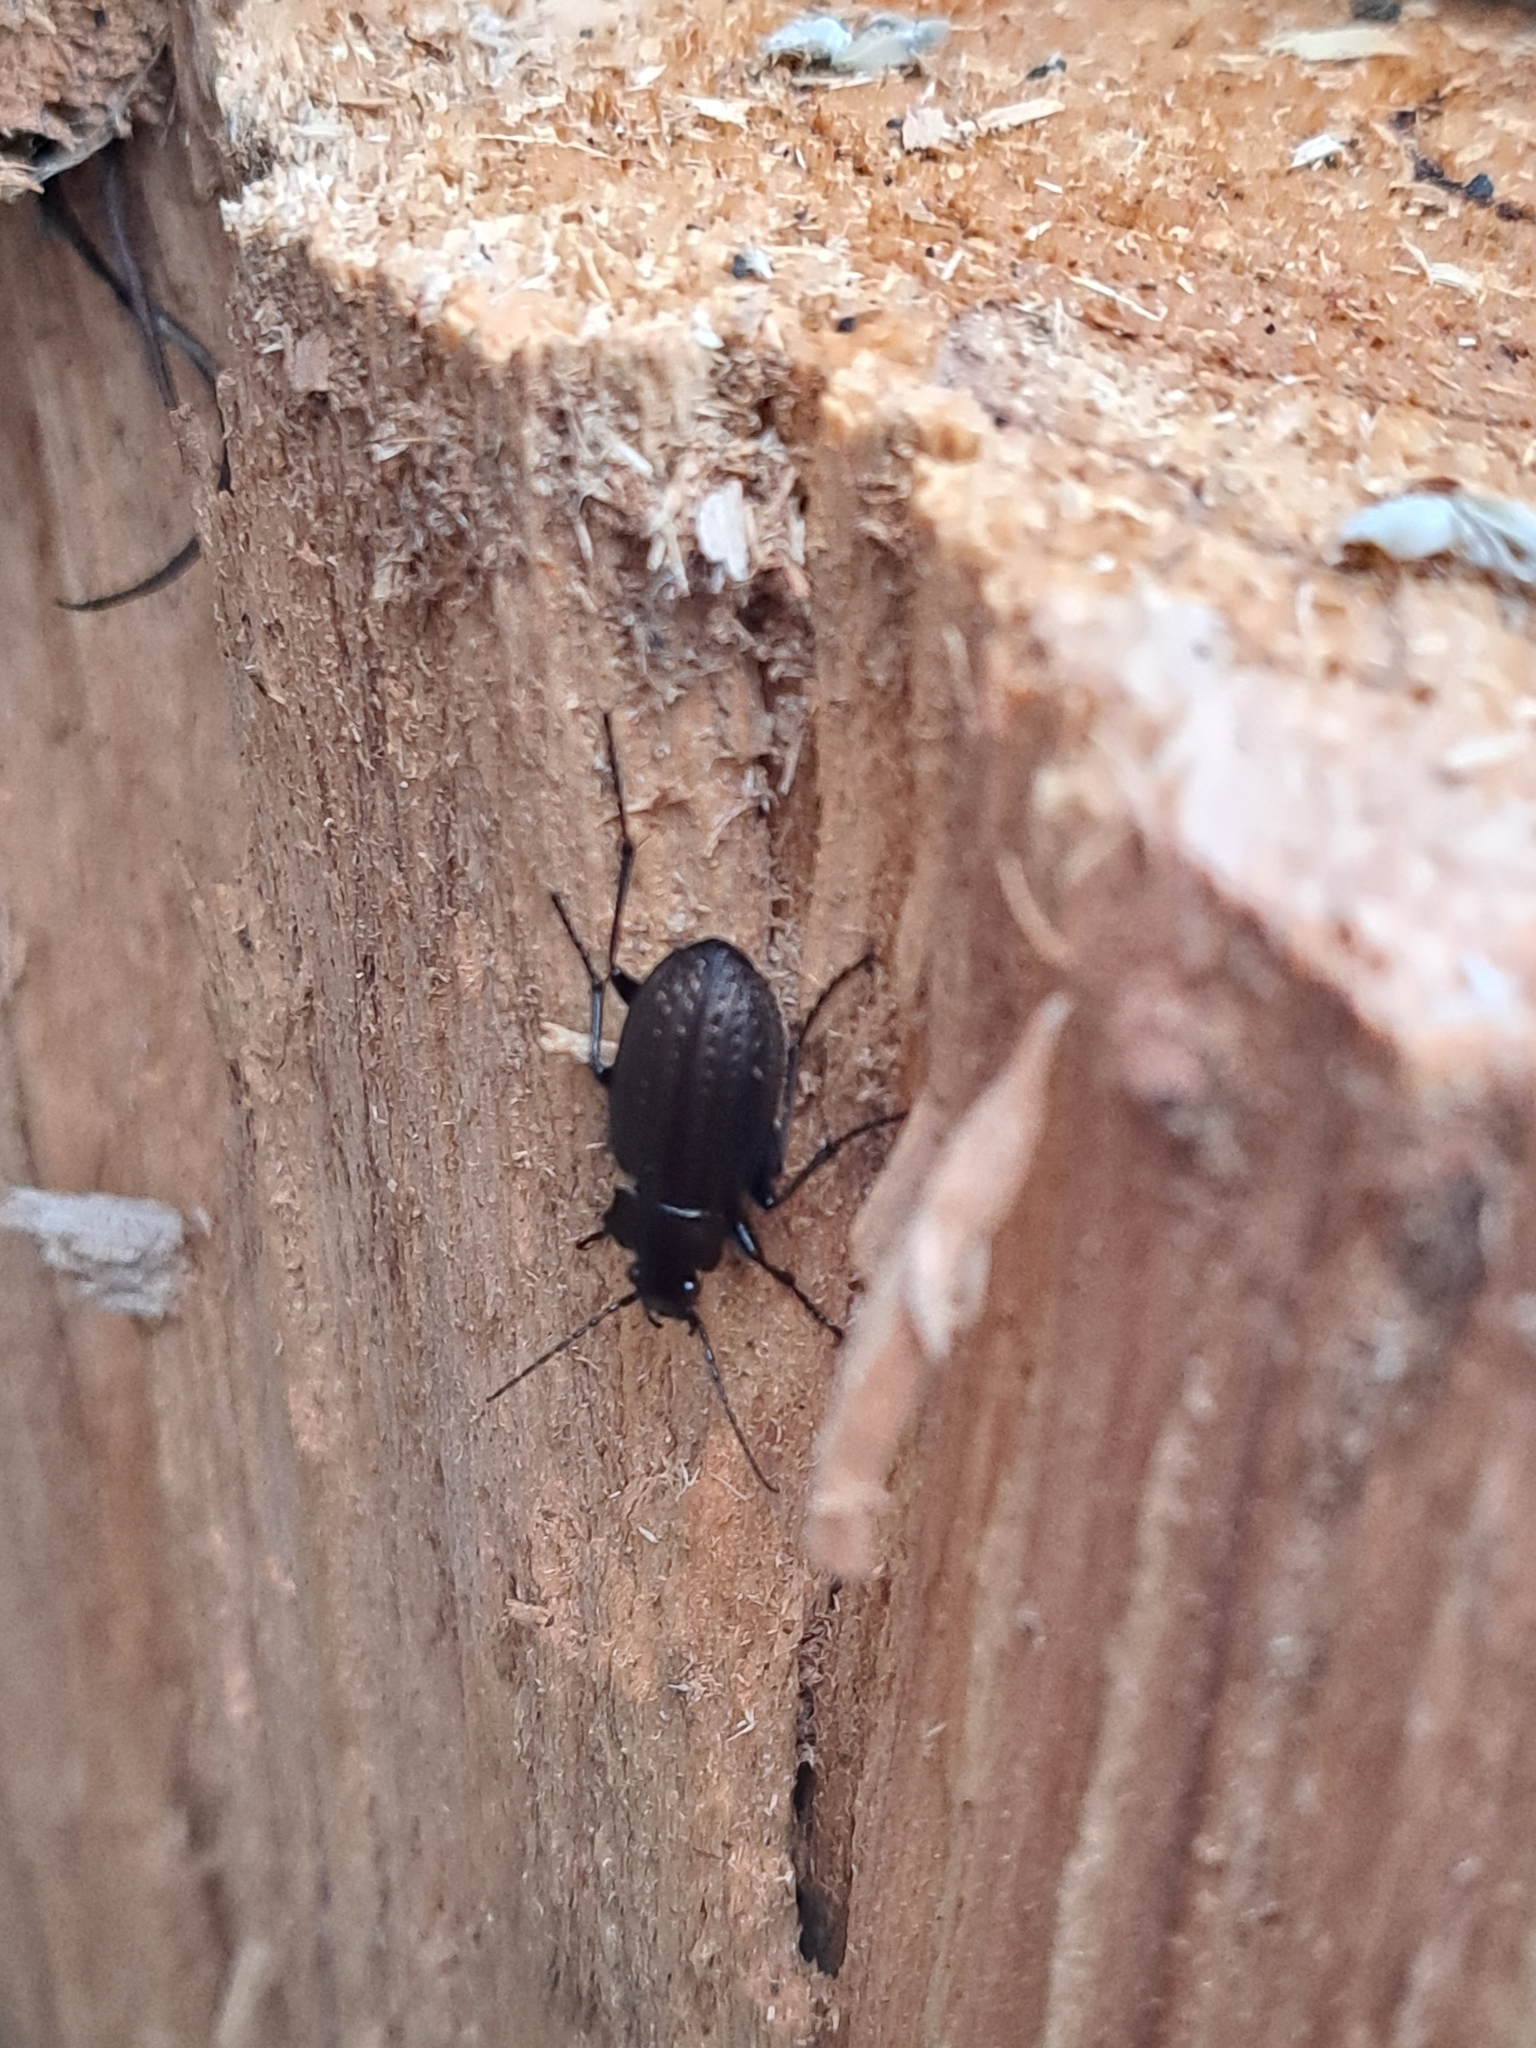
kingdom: Animalia
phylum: Arthropoda
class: Insecta
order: Coleoptera
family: Carabidae
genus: Carabus
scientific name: Carabus granulatus
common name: Granulate ground beetle
